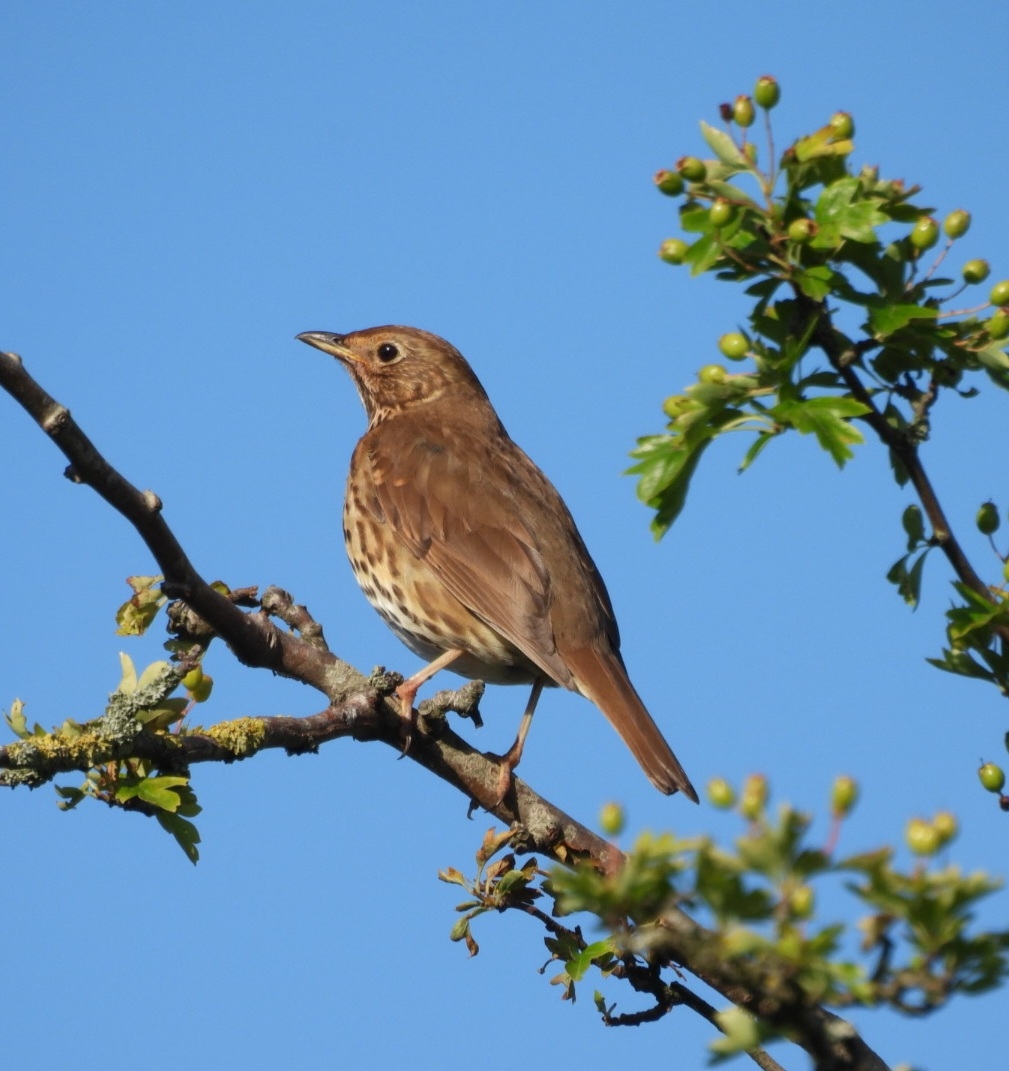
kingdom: Animalia
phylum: Chordata
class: Aves
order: Passeriformes
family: Turdidae
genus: Turdus
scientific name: Turdus philomelos
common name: Song thrush
